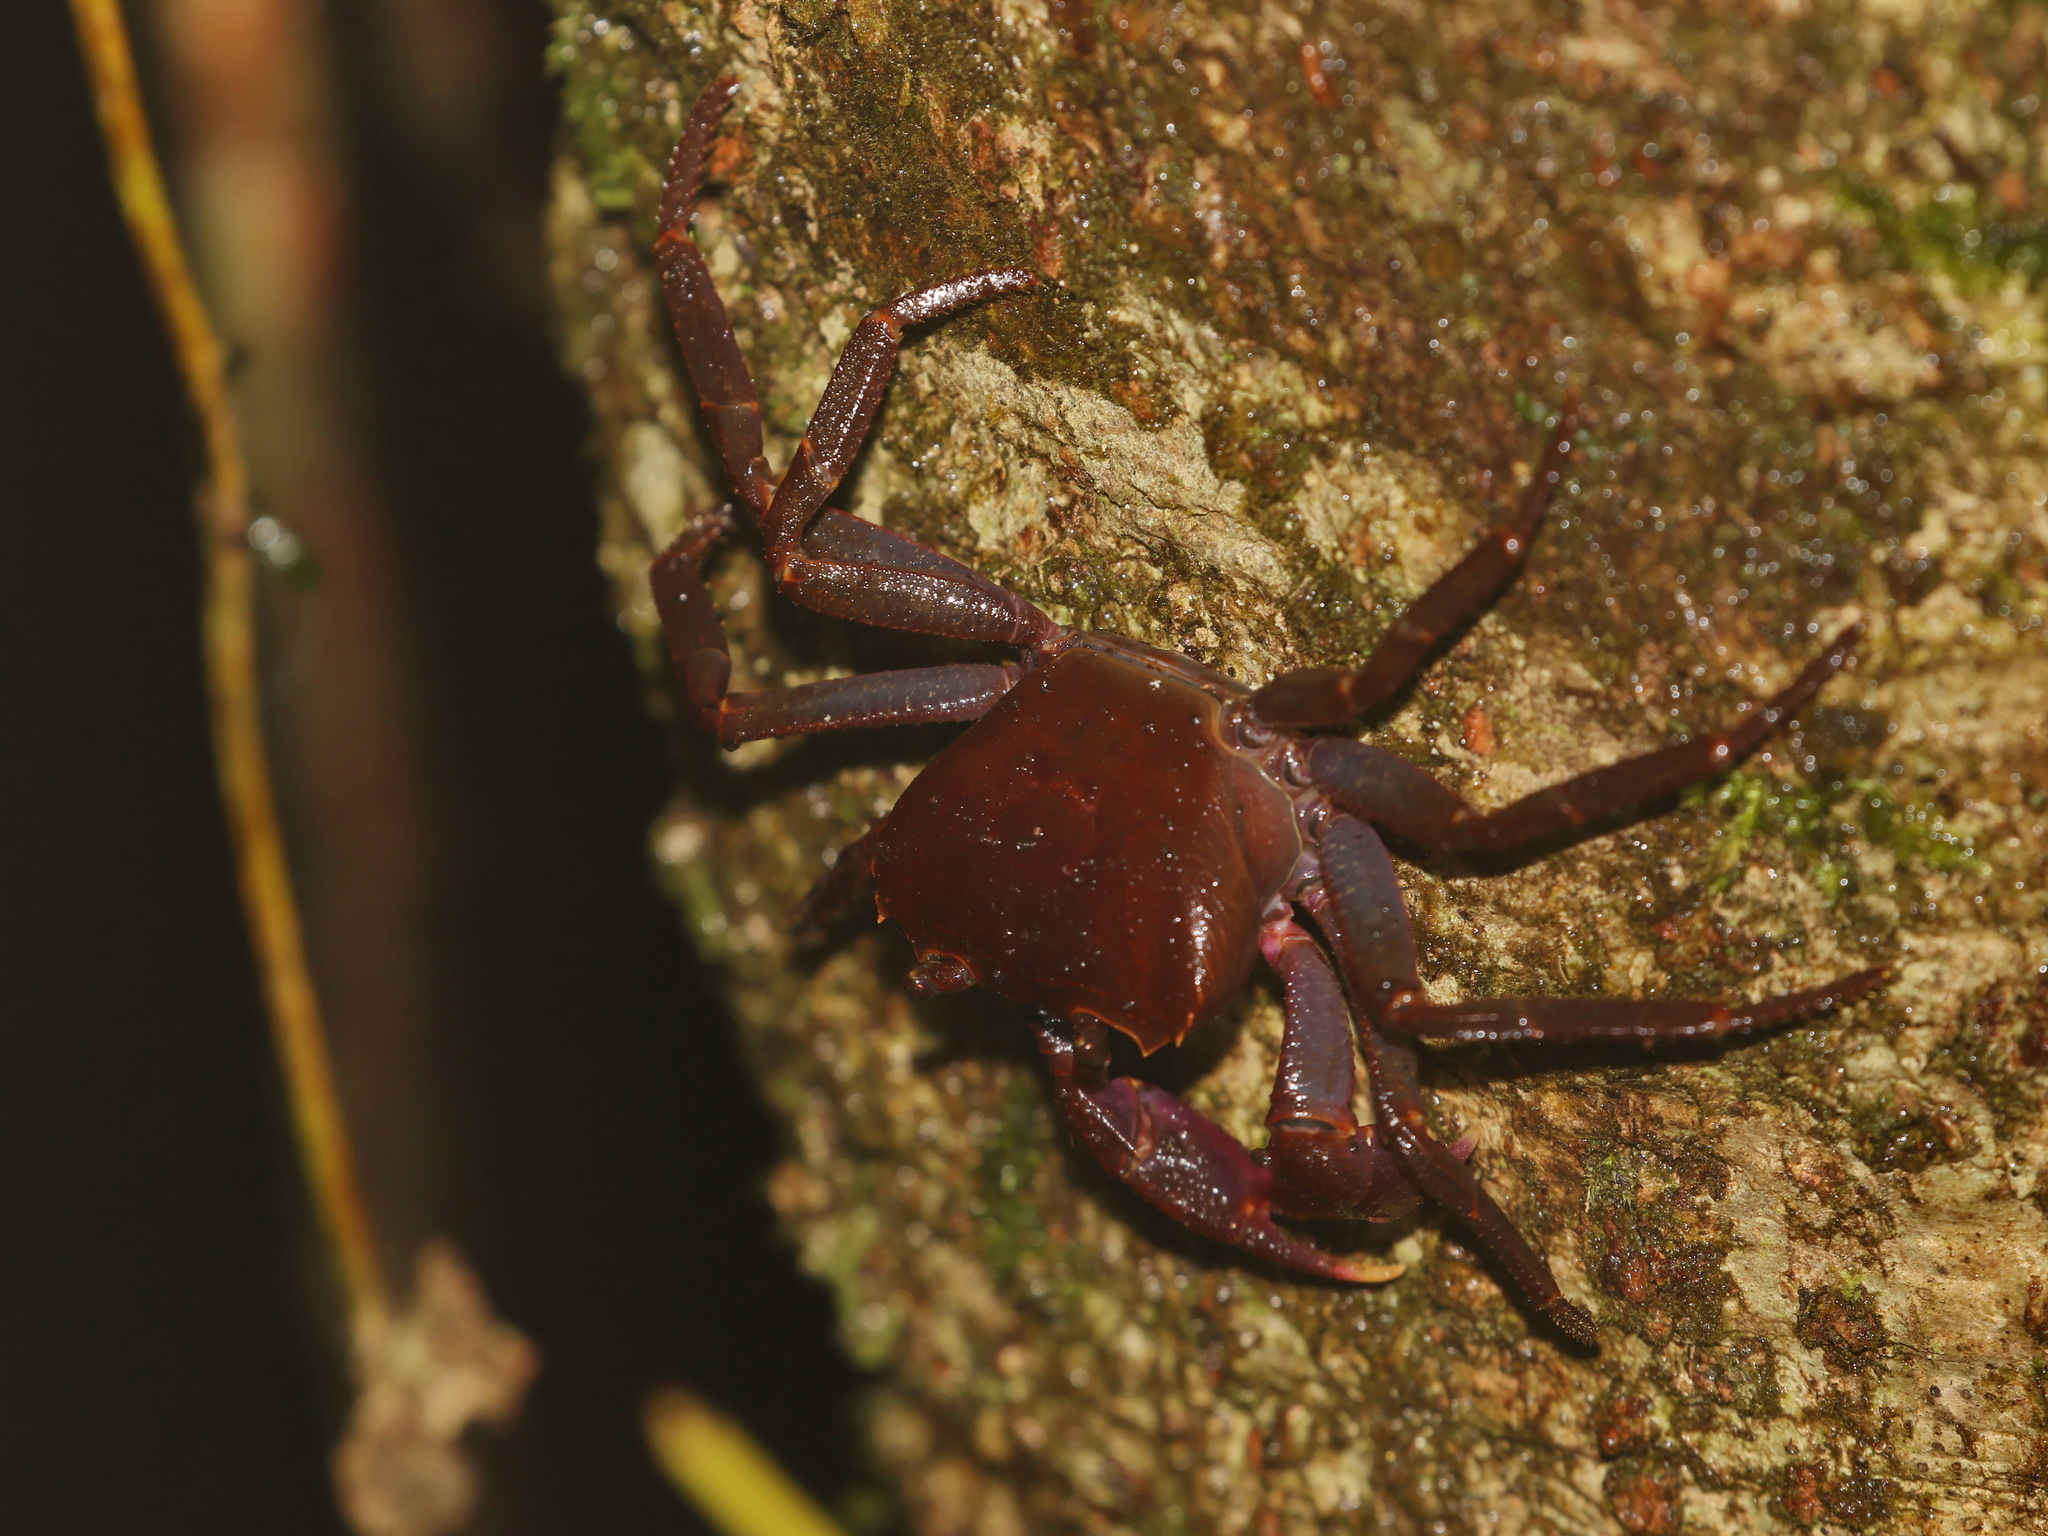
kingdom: Animalia
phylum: Arthropoda
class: Malacostraca
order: Decapoda
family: Gecarcinucidae
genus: Phricotelphusa
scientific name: Phricotelphusa aedes
